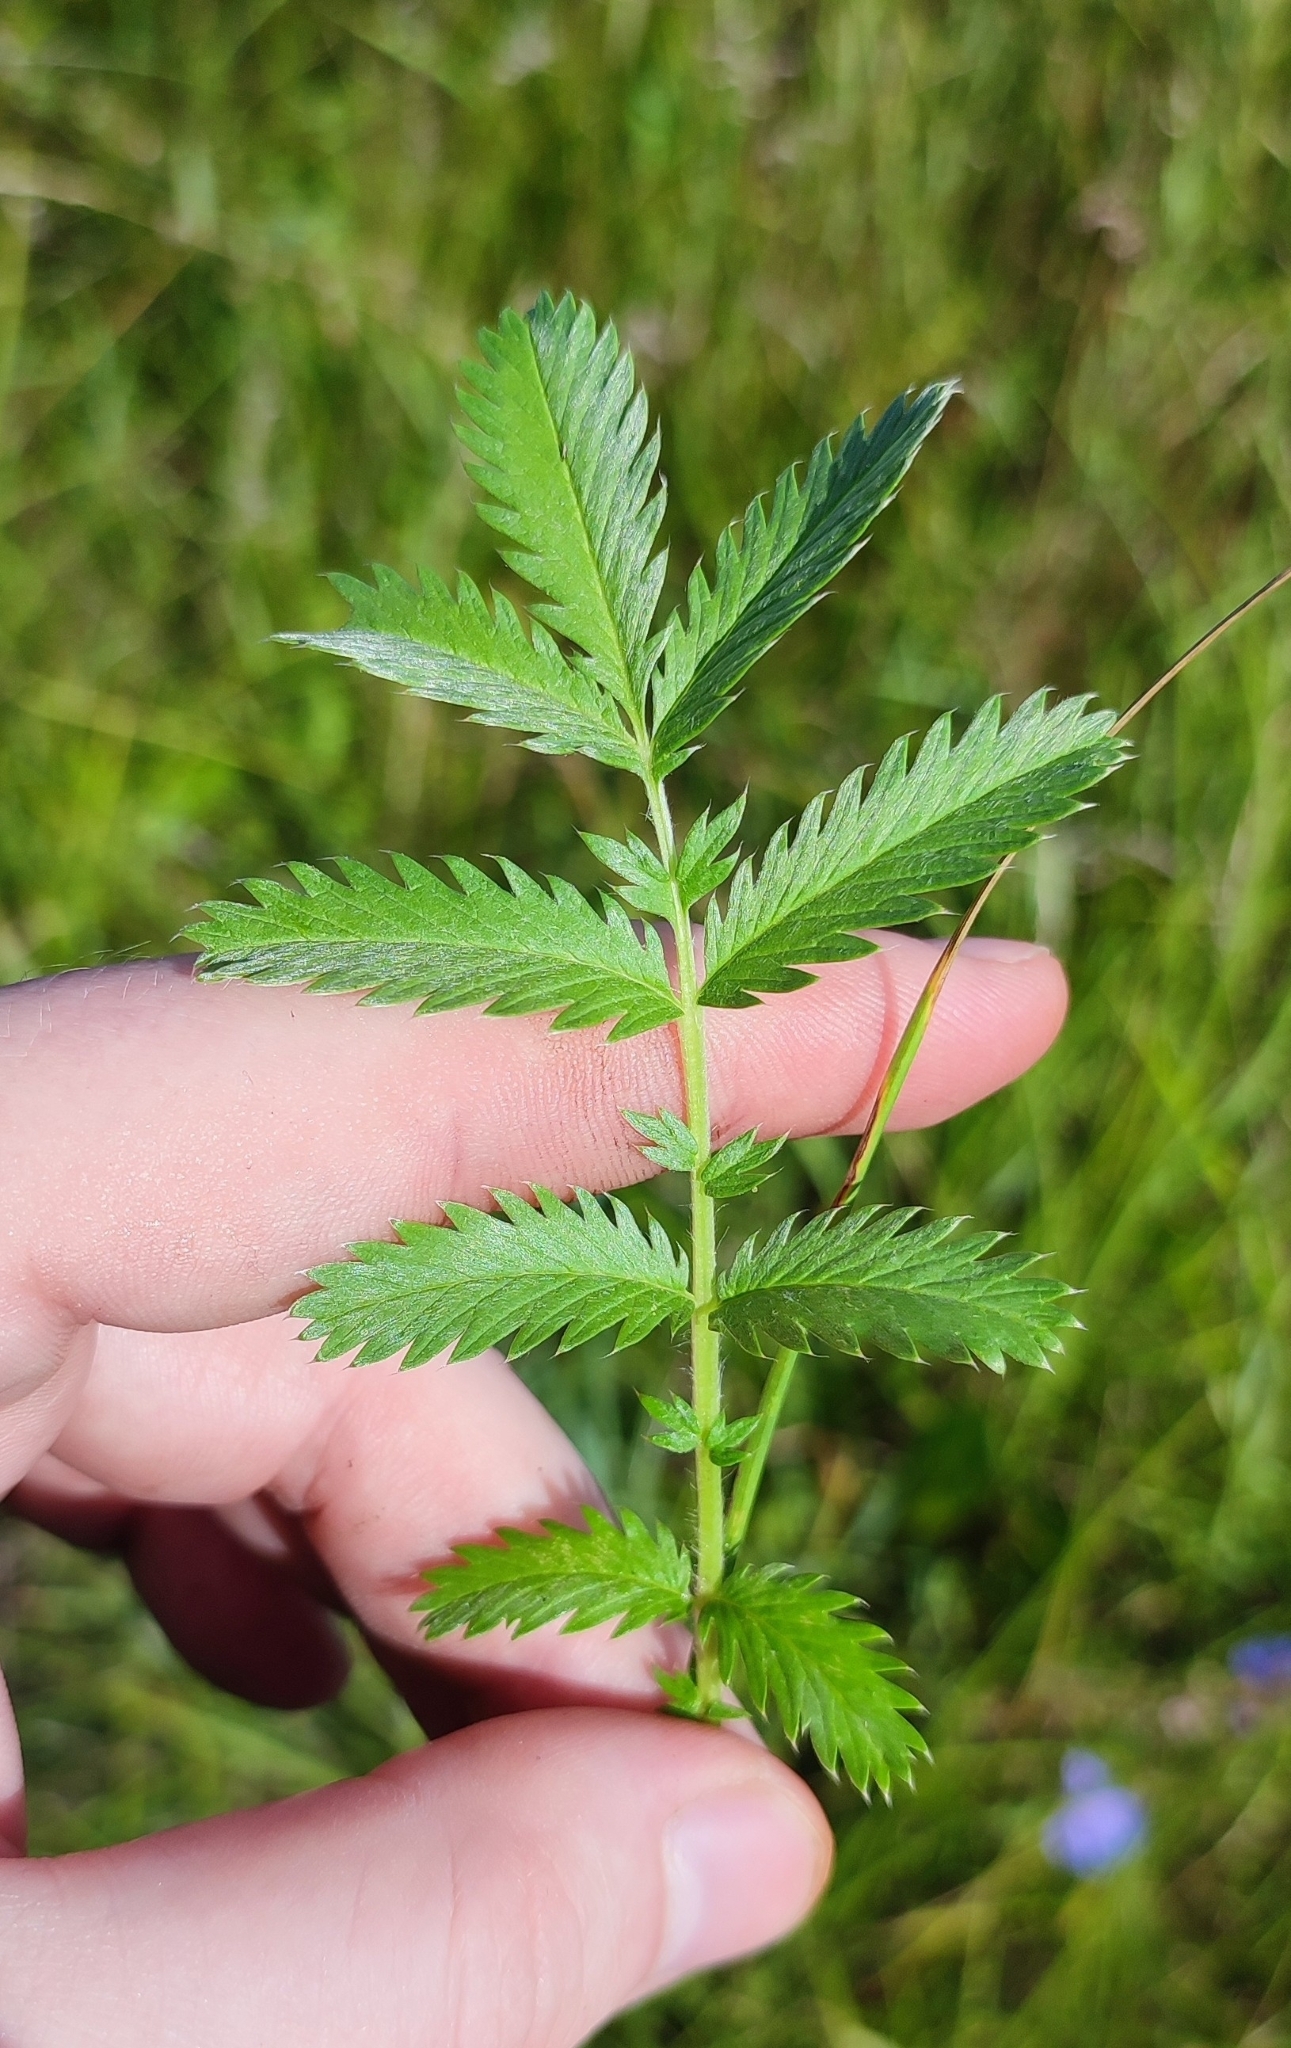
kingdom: Plantae
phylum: Tracheophyta
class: Magnoliopsida
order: Rosales
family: Rosaceae
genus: Argentina
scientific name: Argentina anserina
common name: Common silverweed
